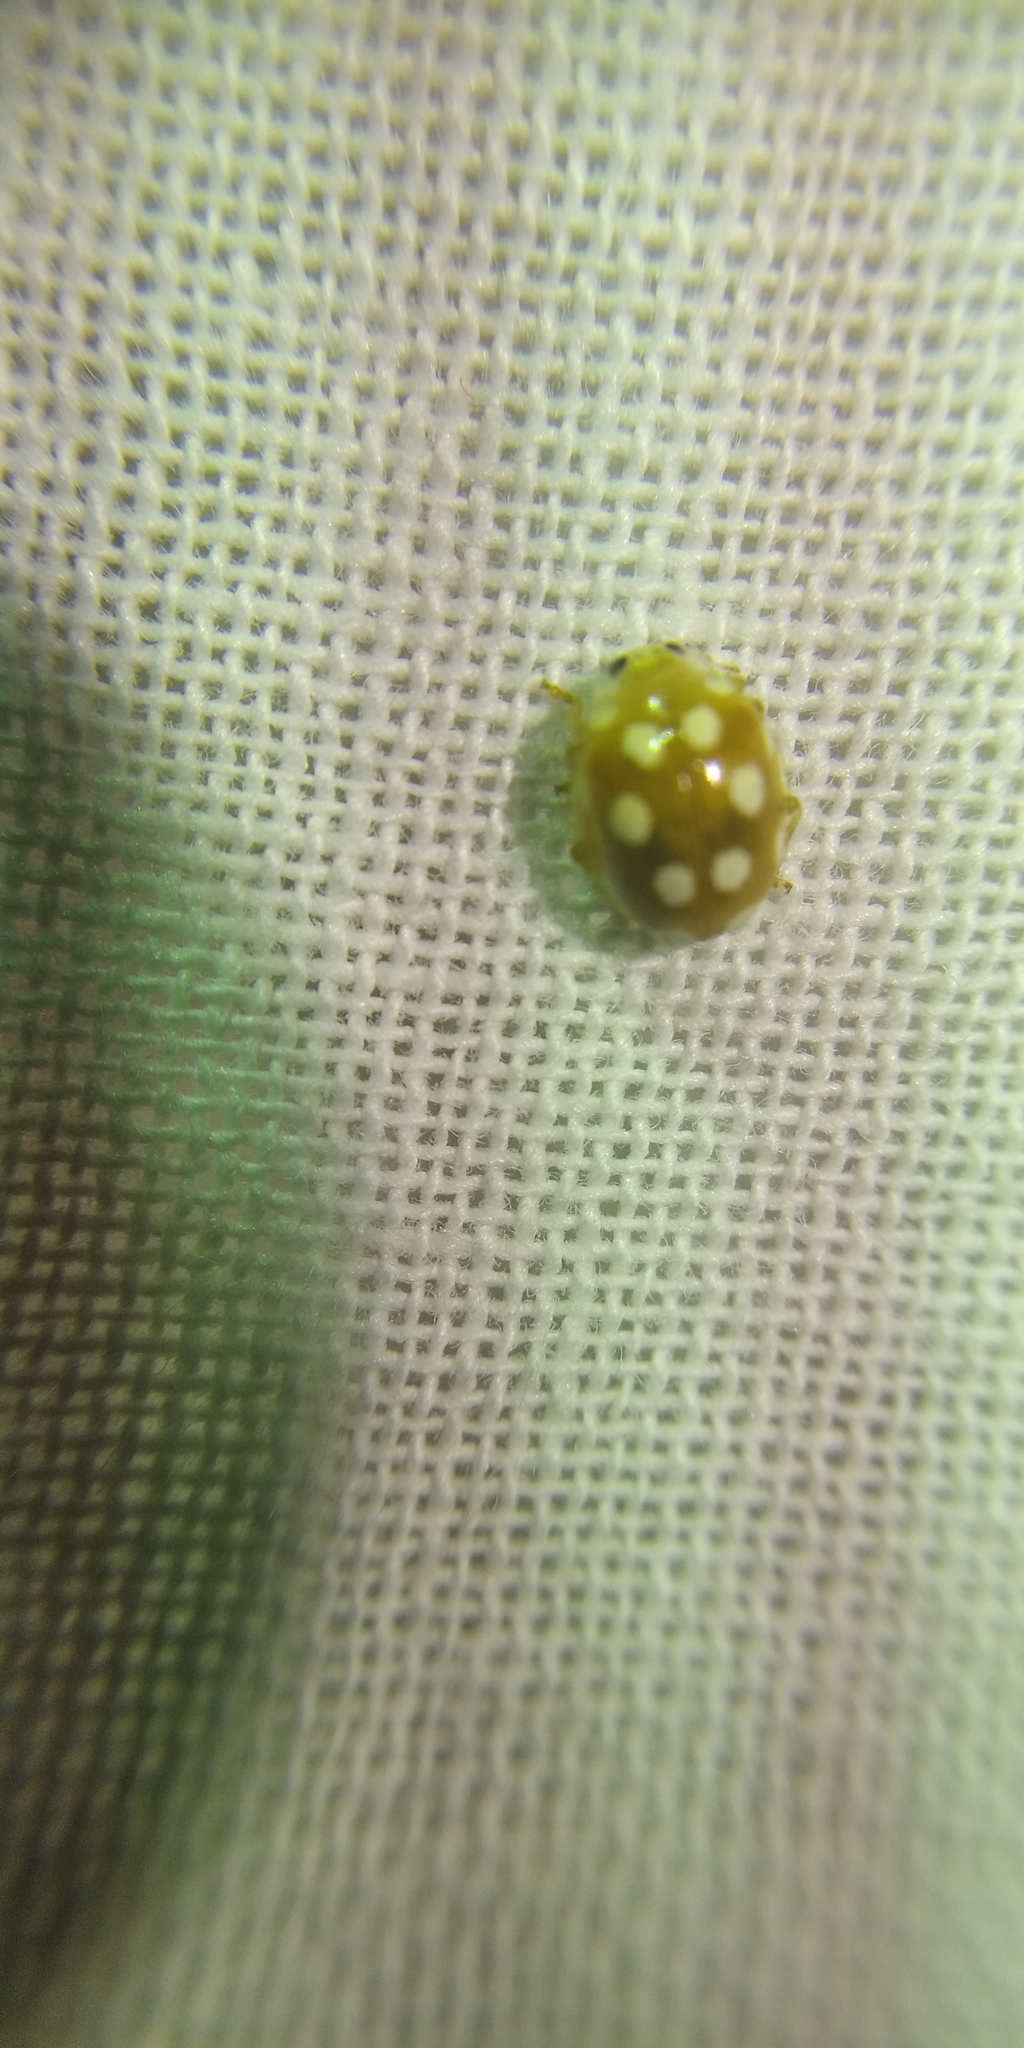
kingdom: Animalia
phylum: Arthropoda
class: Insecta
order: Coleoptera
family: Coccinellidae
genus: Vibidia
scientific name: Vibidia duodecimguttata
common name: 12-spot ladybird
